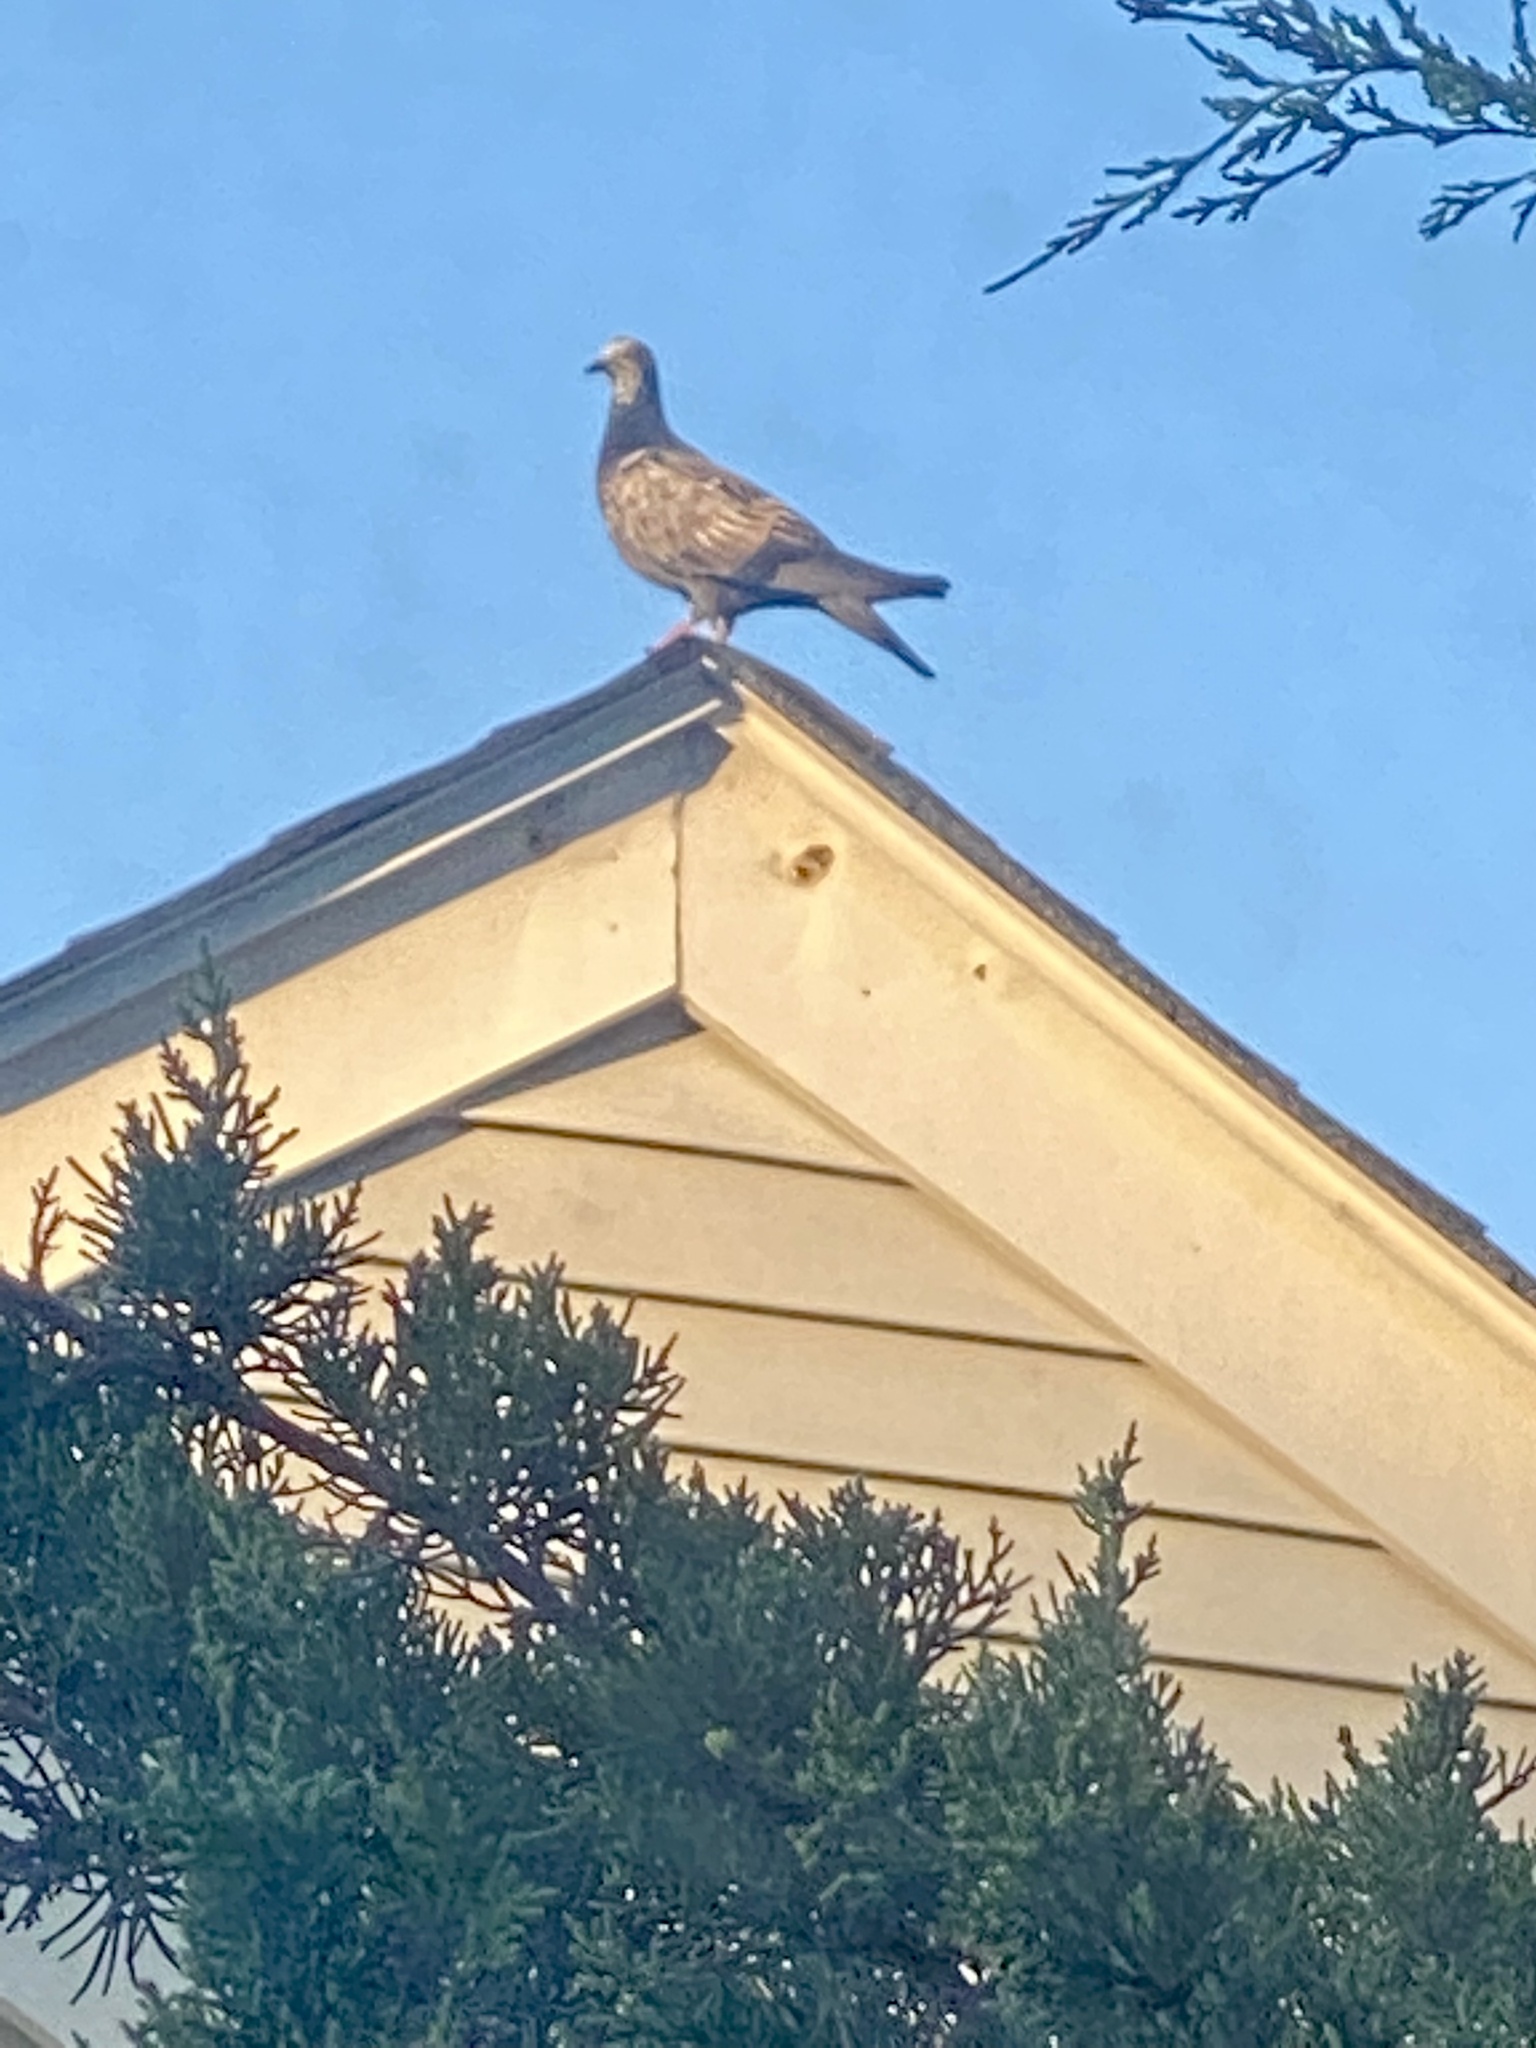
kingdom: Animalia
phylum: Chordata
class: Aves
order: Columbiformes
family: Columbidae
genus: Columba
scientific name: Columba livia
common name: Rock pigeon
